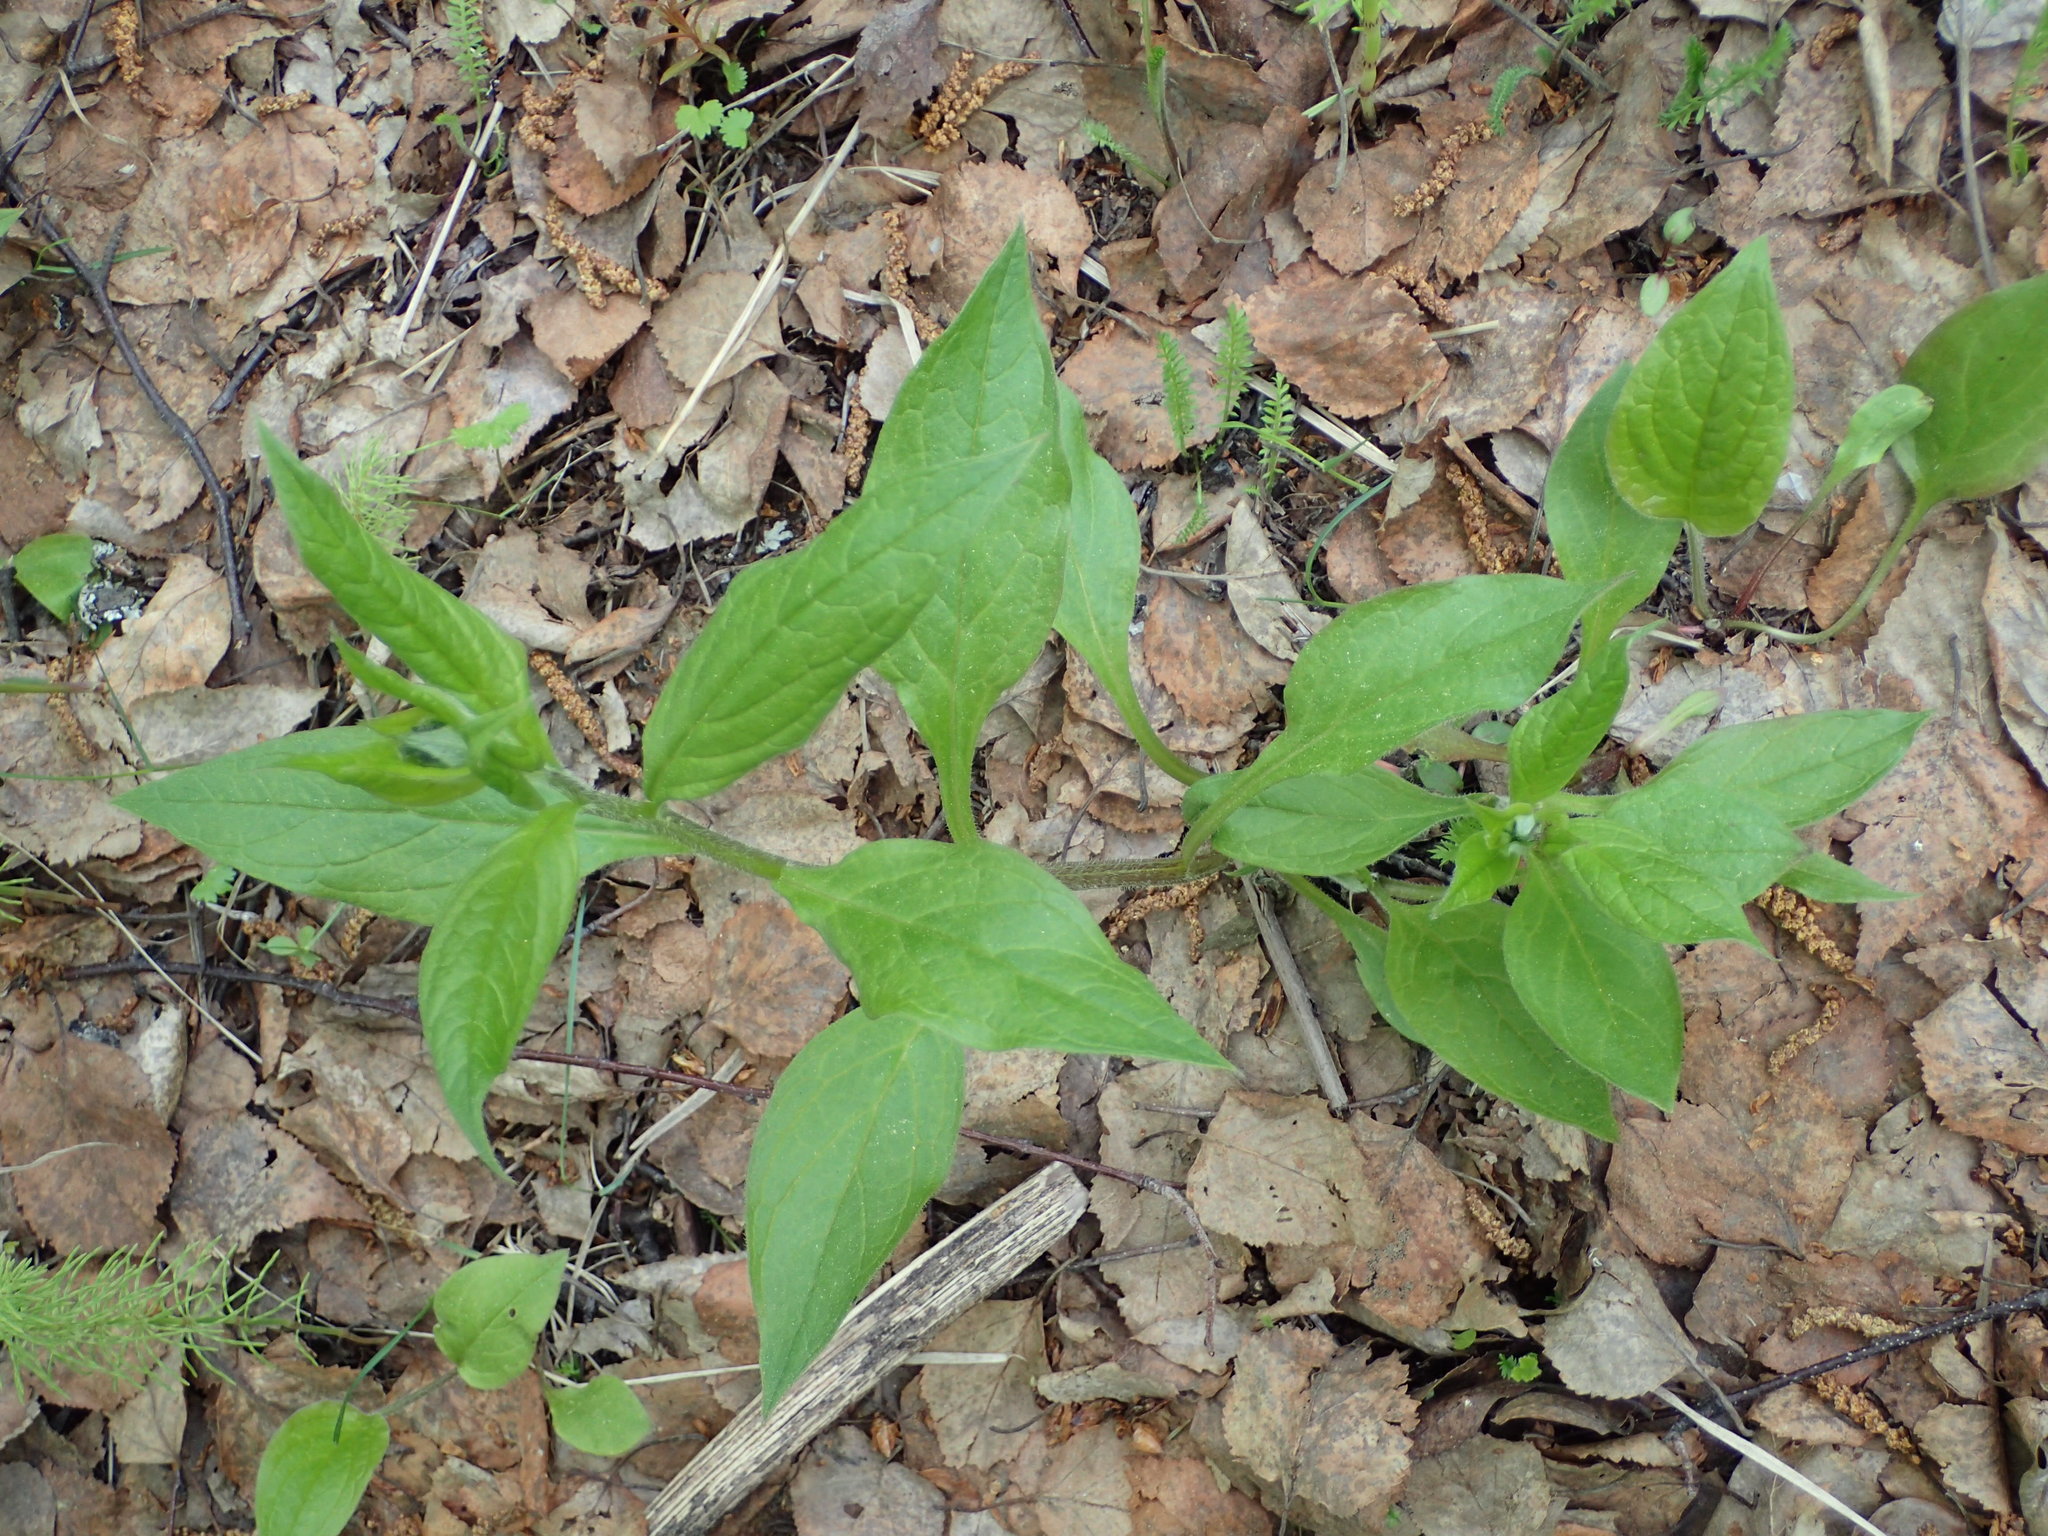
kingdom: Plantae
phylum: Tracheophyta
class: Magnoliopsida
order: Boraginales
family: Boraginaceae
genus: Mertensia
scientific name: Mertensia paniculata
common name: Panicled bluebells
